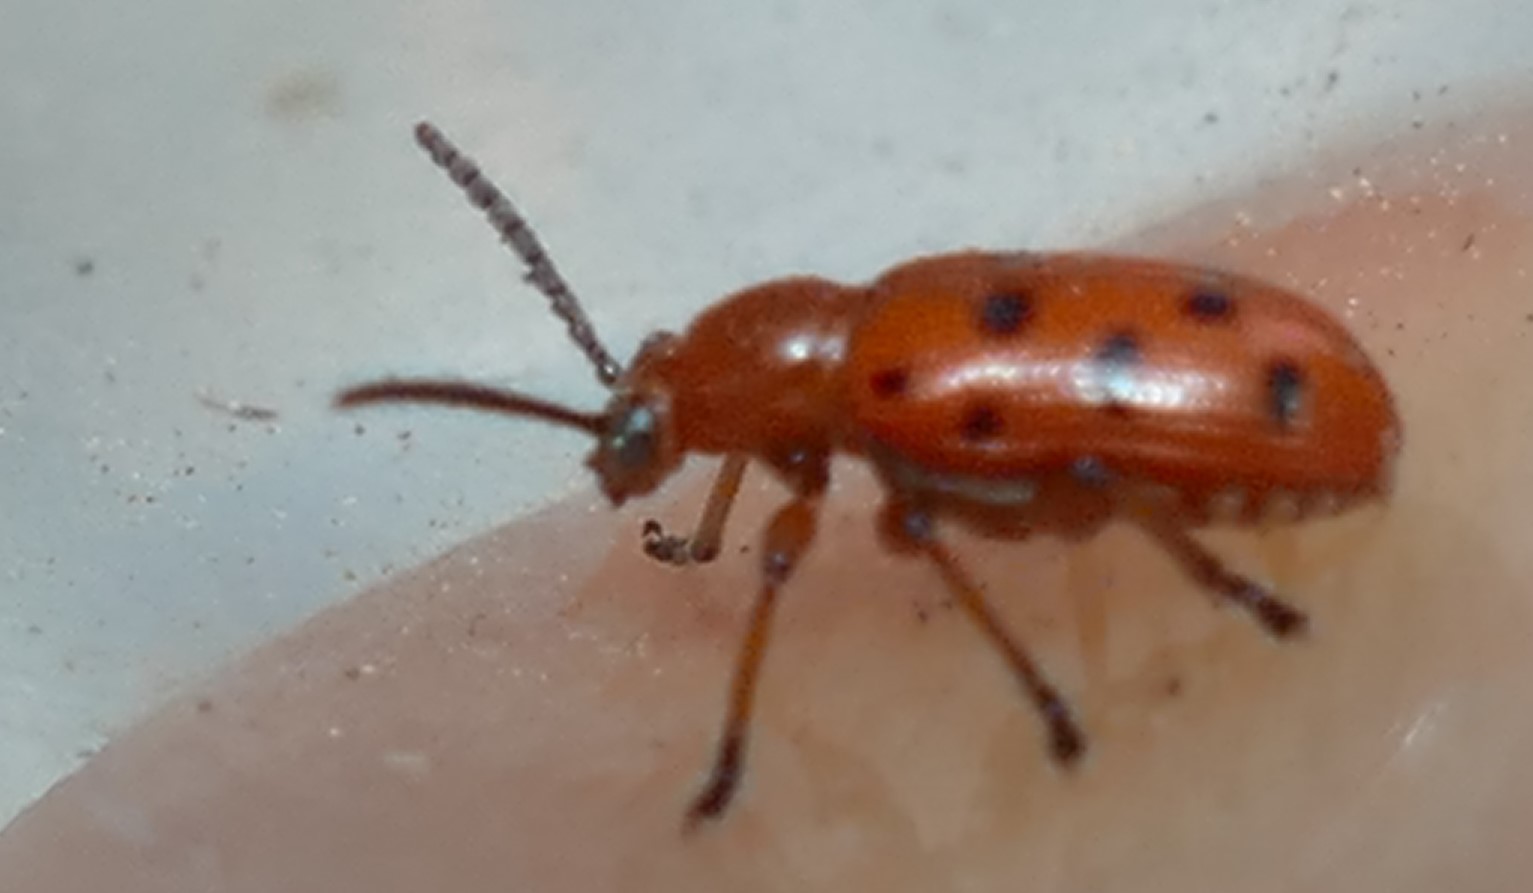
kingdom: Animalia
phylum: Arthropoda
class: Insecta
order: Coleoptera
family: Chrysomelidae
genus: Crioceris
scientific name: Crioceris duodecimpunctata
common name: Twelve-spotted asparagus beetle
